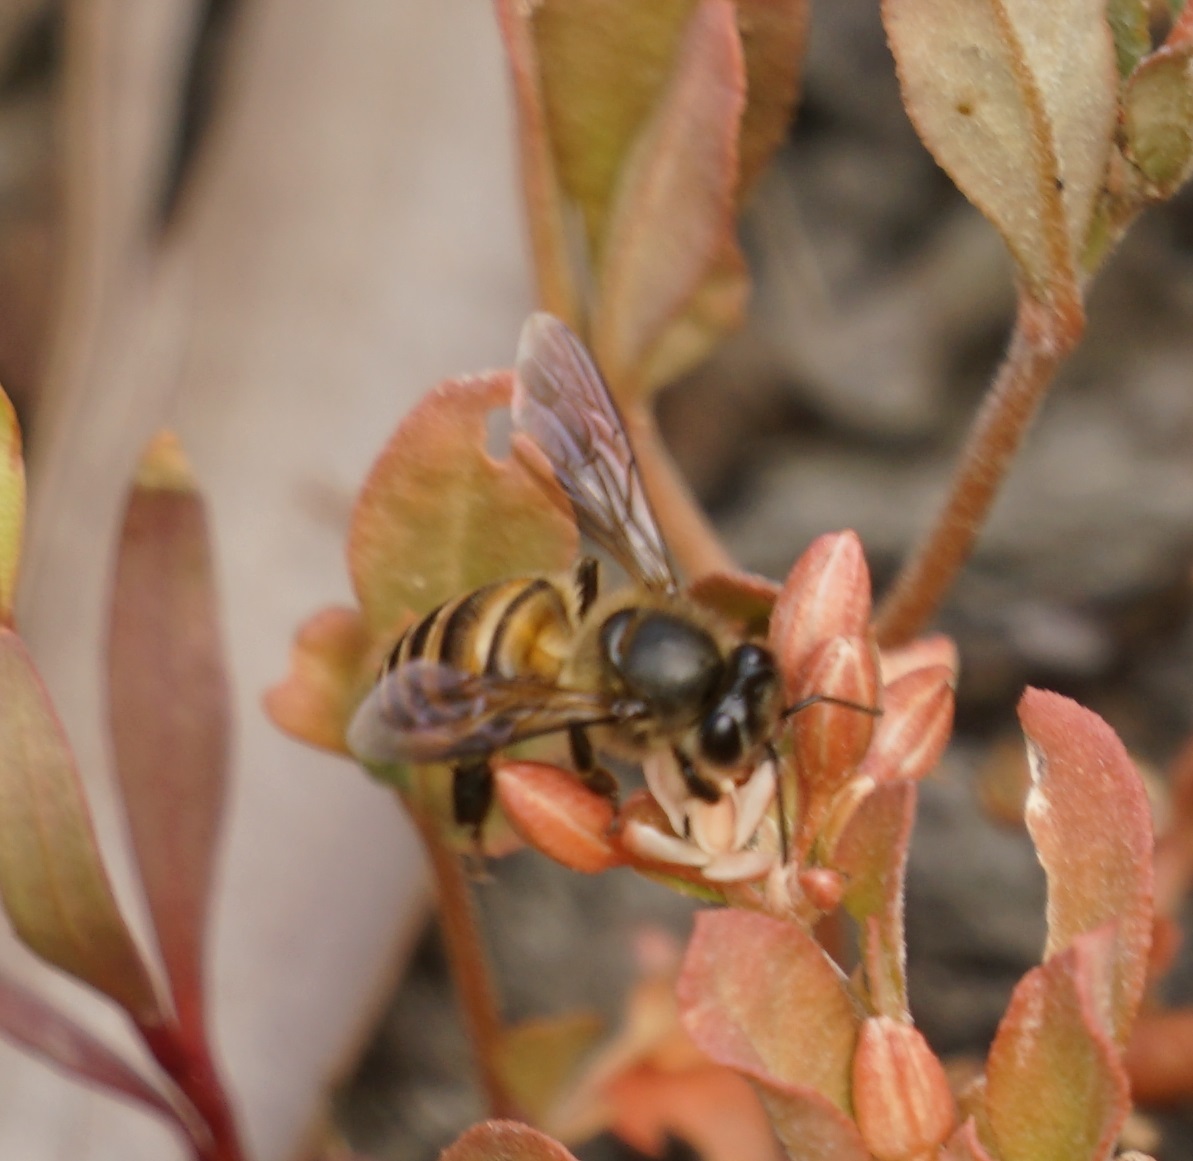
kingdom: Animalia
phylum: Arthropoda
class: Insecta
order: Hymenoptera
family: Apidae
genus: Apis
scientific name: Apis cerana
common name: Honey bee
